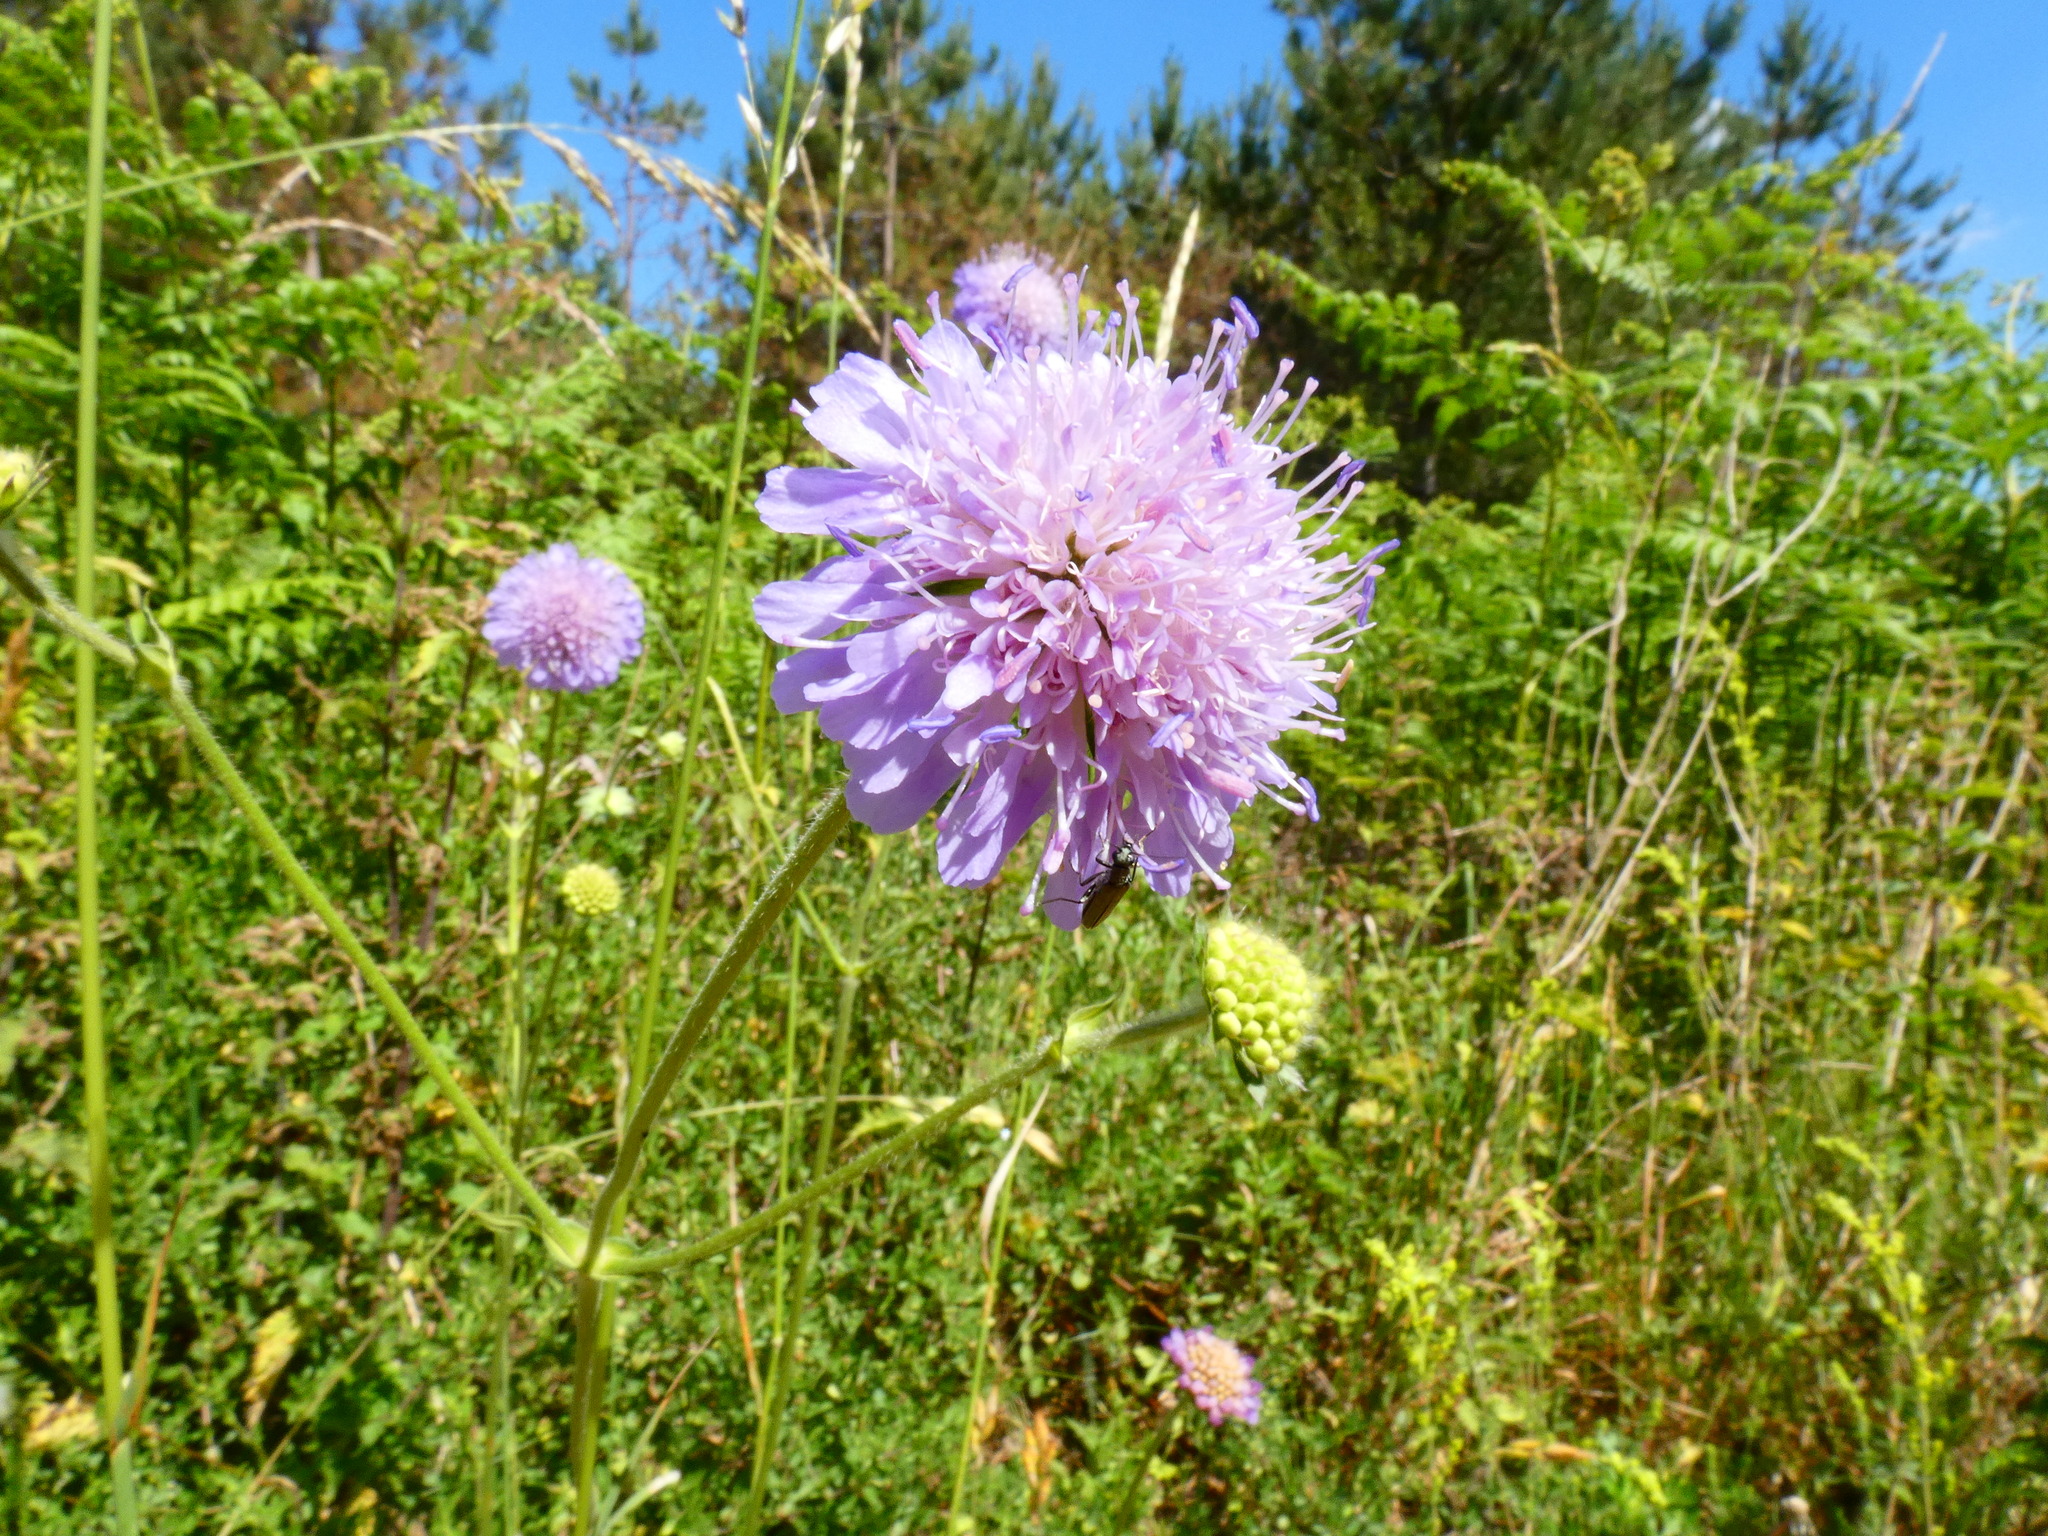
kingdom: Plantae
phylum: Tracheophyta
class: Magnoliopsida
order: Dipsacales
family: Caprifoliaceae
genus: Knautia
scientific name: Knautia arvensis
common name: Field scabiosa
